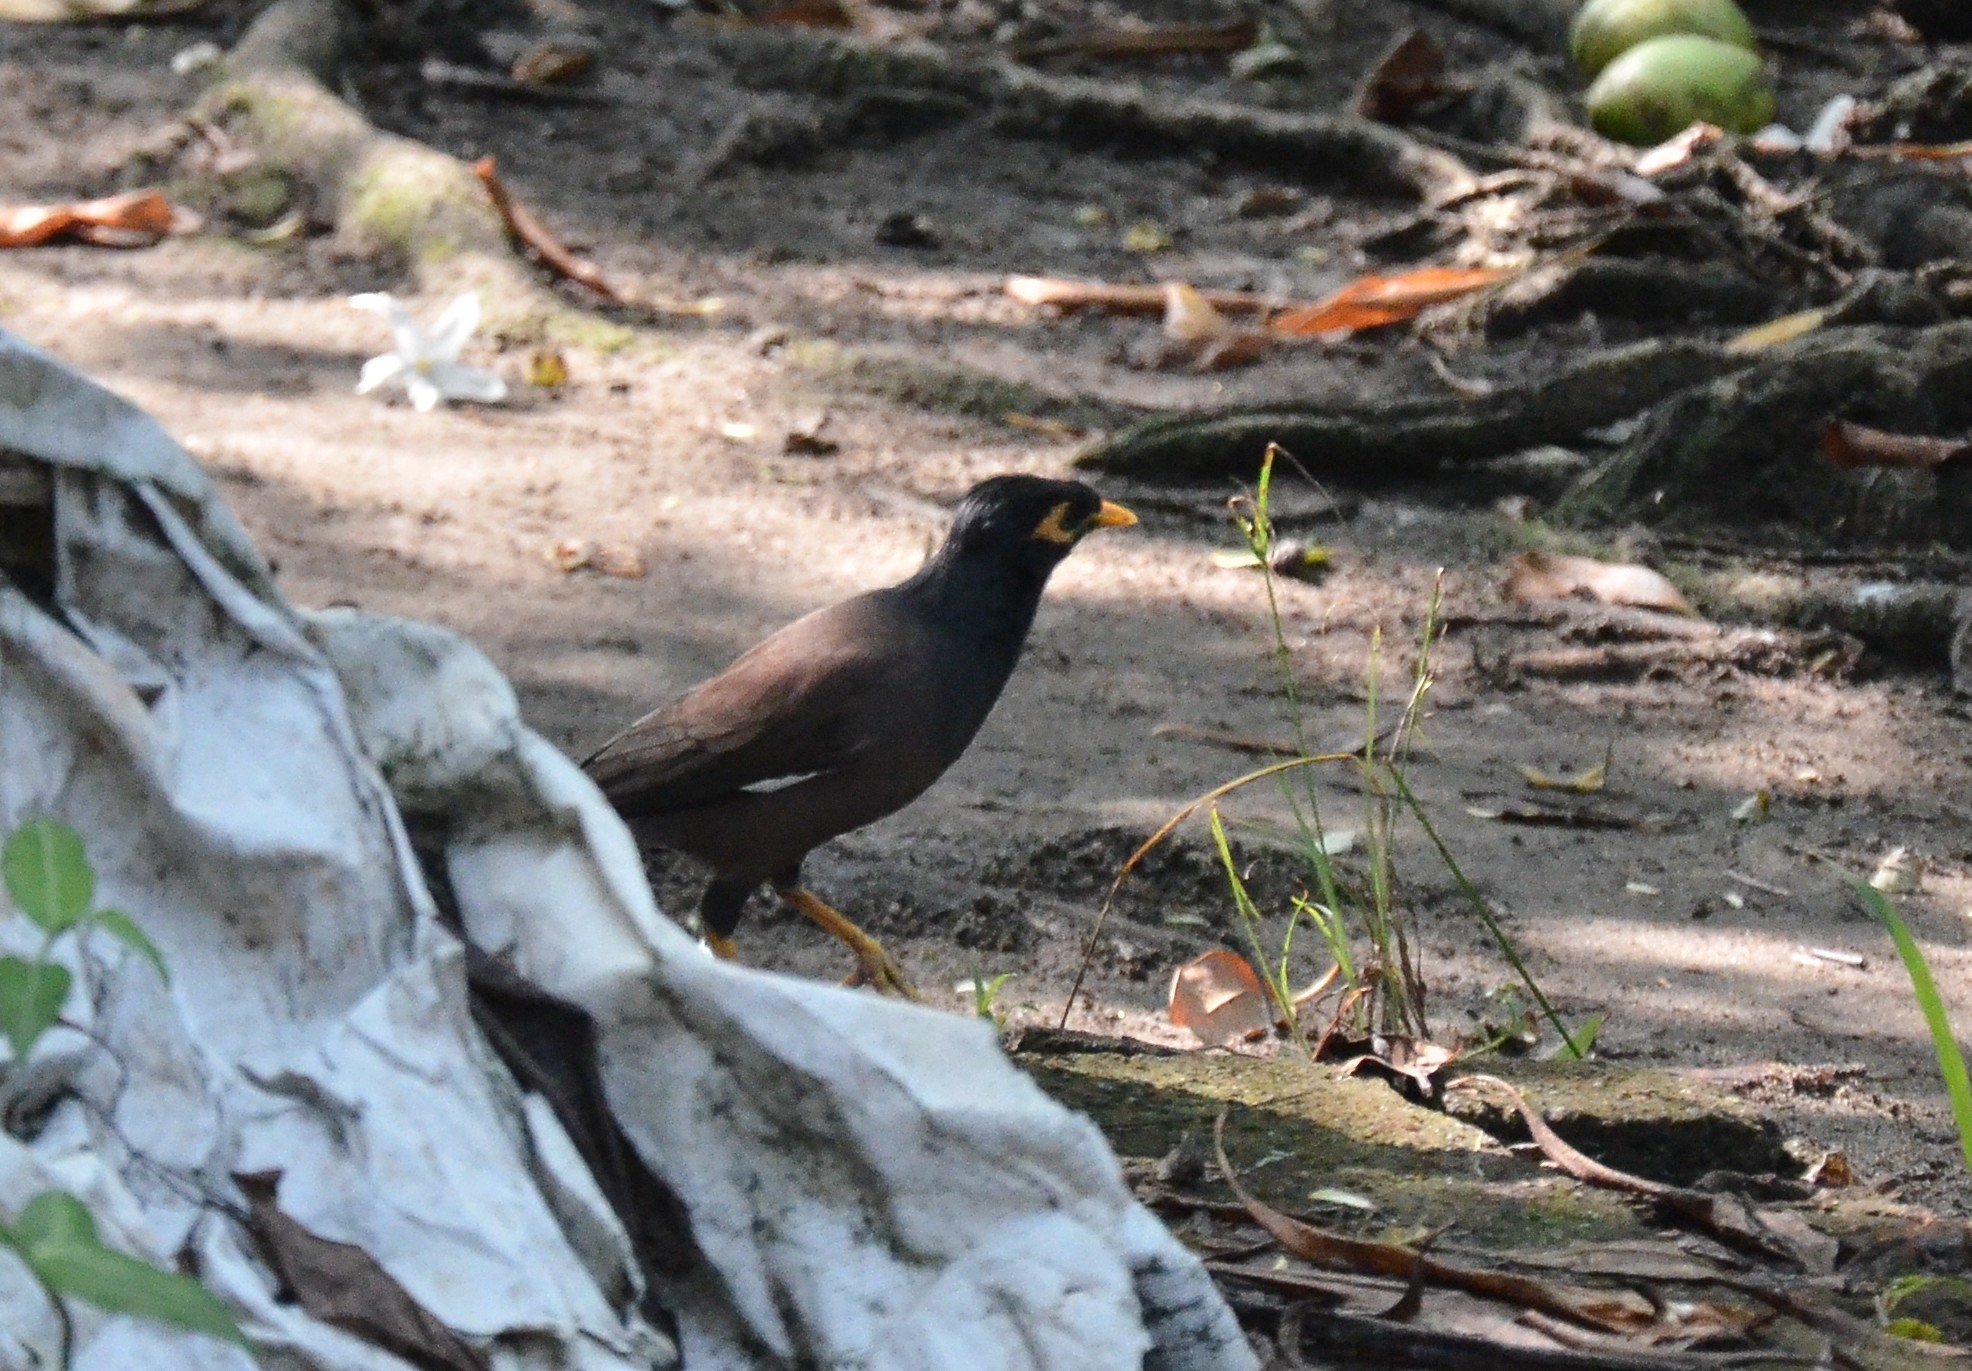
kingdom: Animalia
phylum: Chordata
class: Aves
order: Passeriformes
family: Sturnidae
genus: Acridotheres
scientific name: Acridotheres tristis
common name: Common myna
